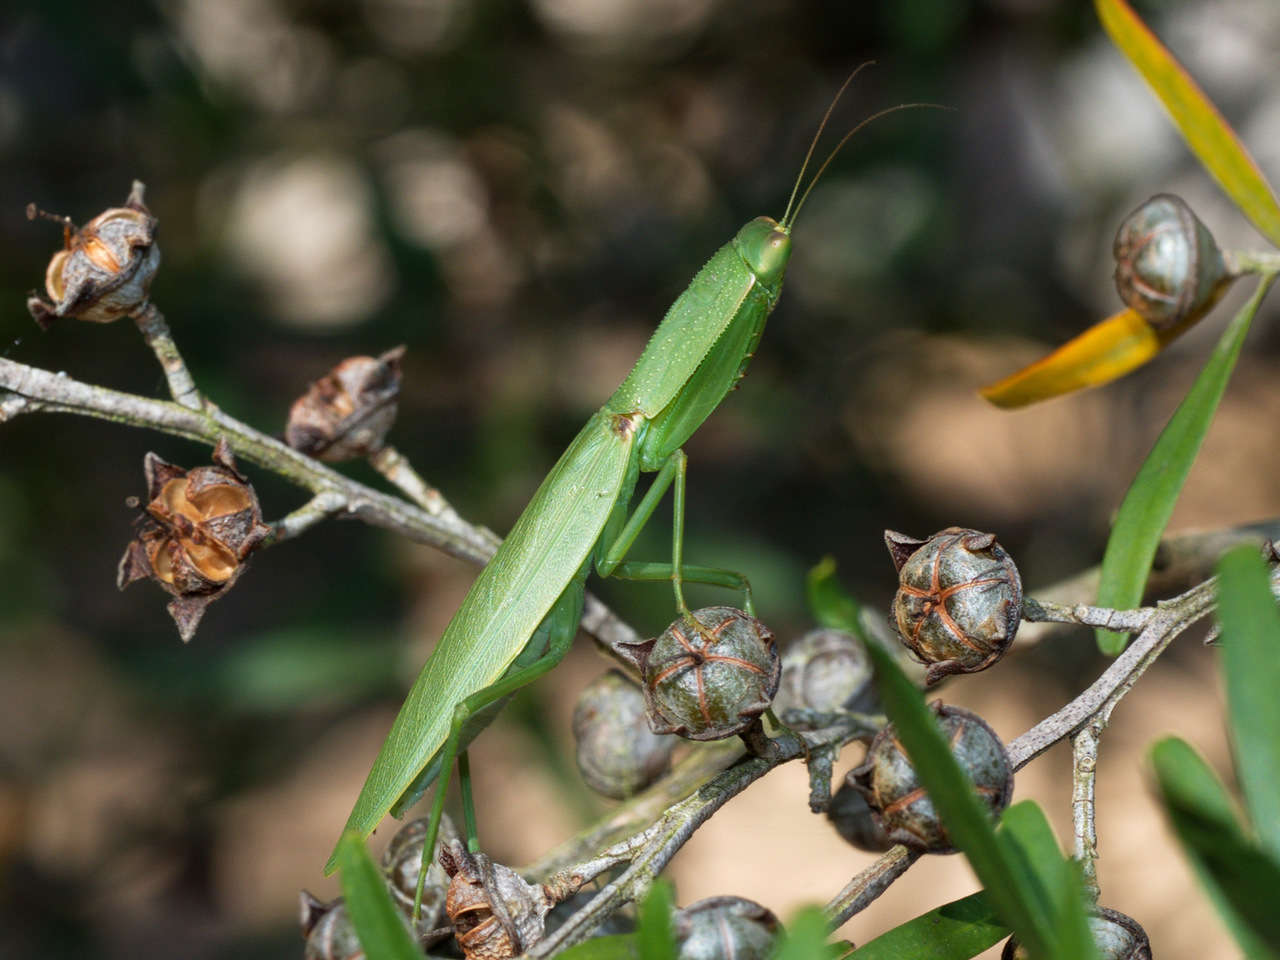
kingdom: Animalia
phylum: Arthropoda
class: Insecta
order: Mantodea
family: Mantidae
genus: Orthodera
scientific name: Orthodera ministralis
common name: Mantis
